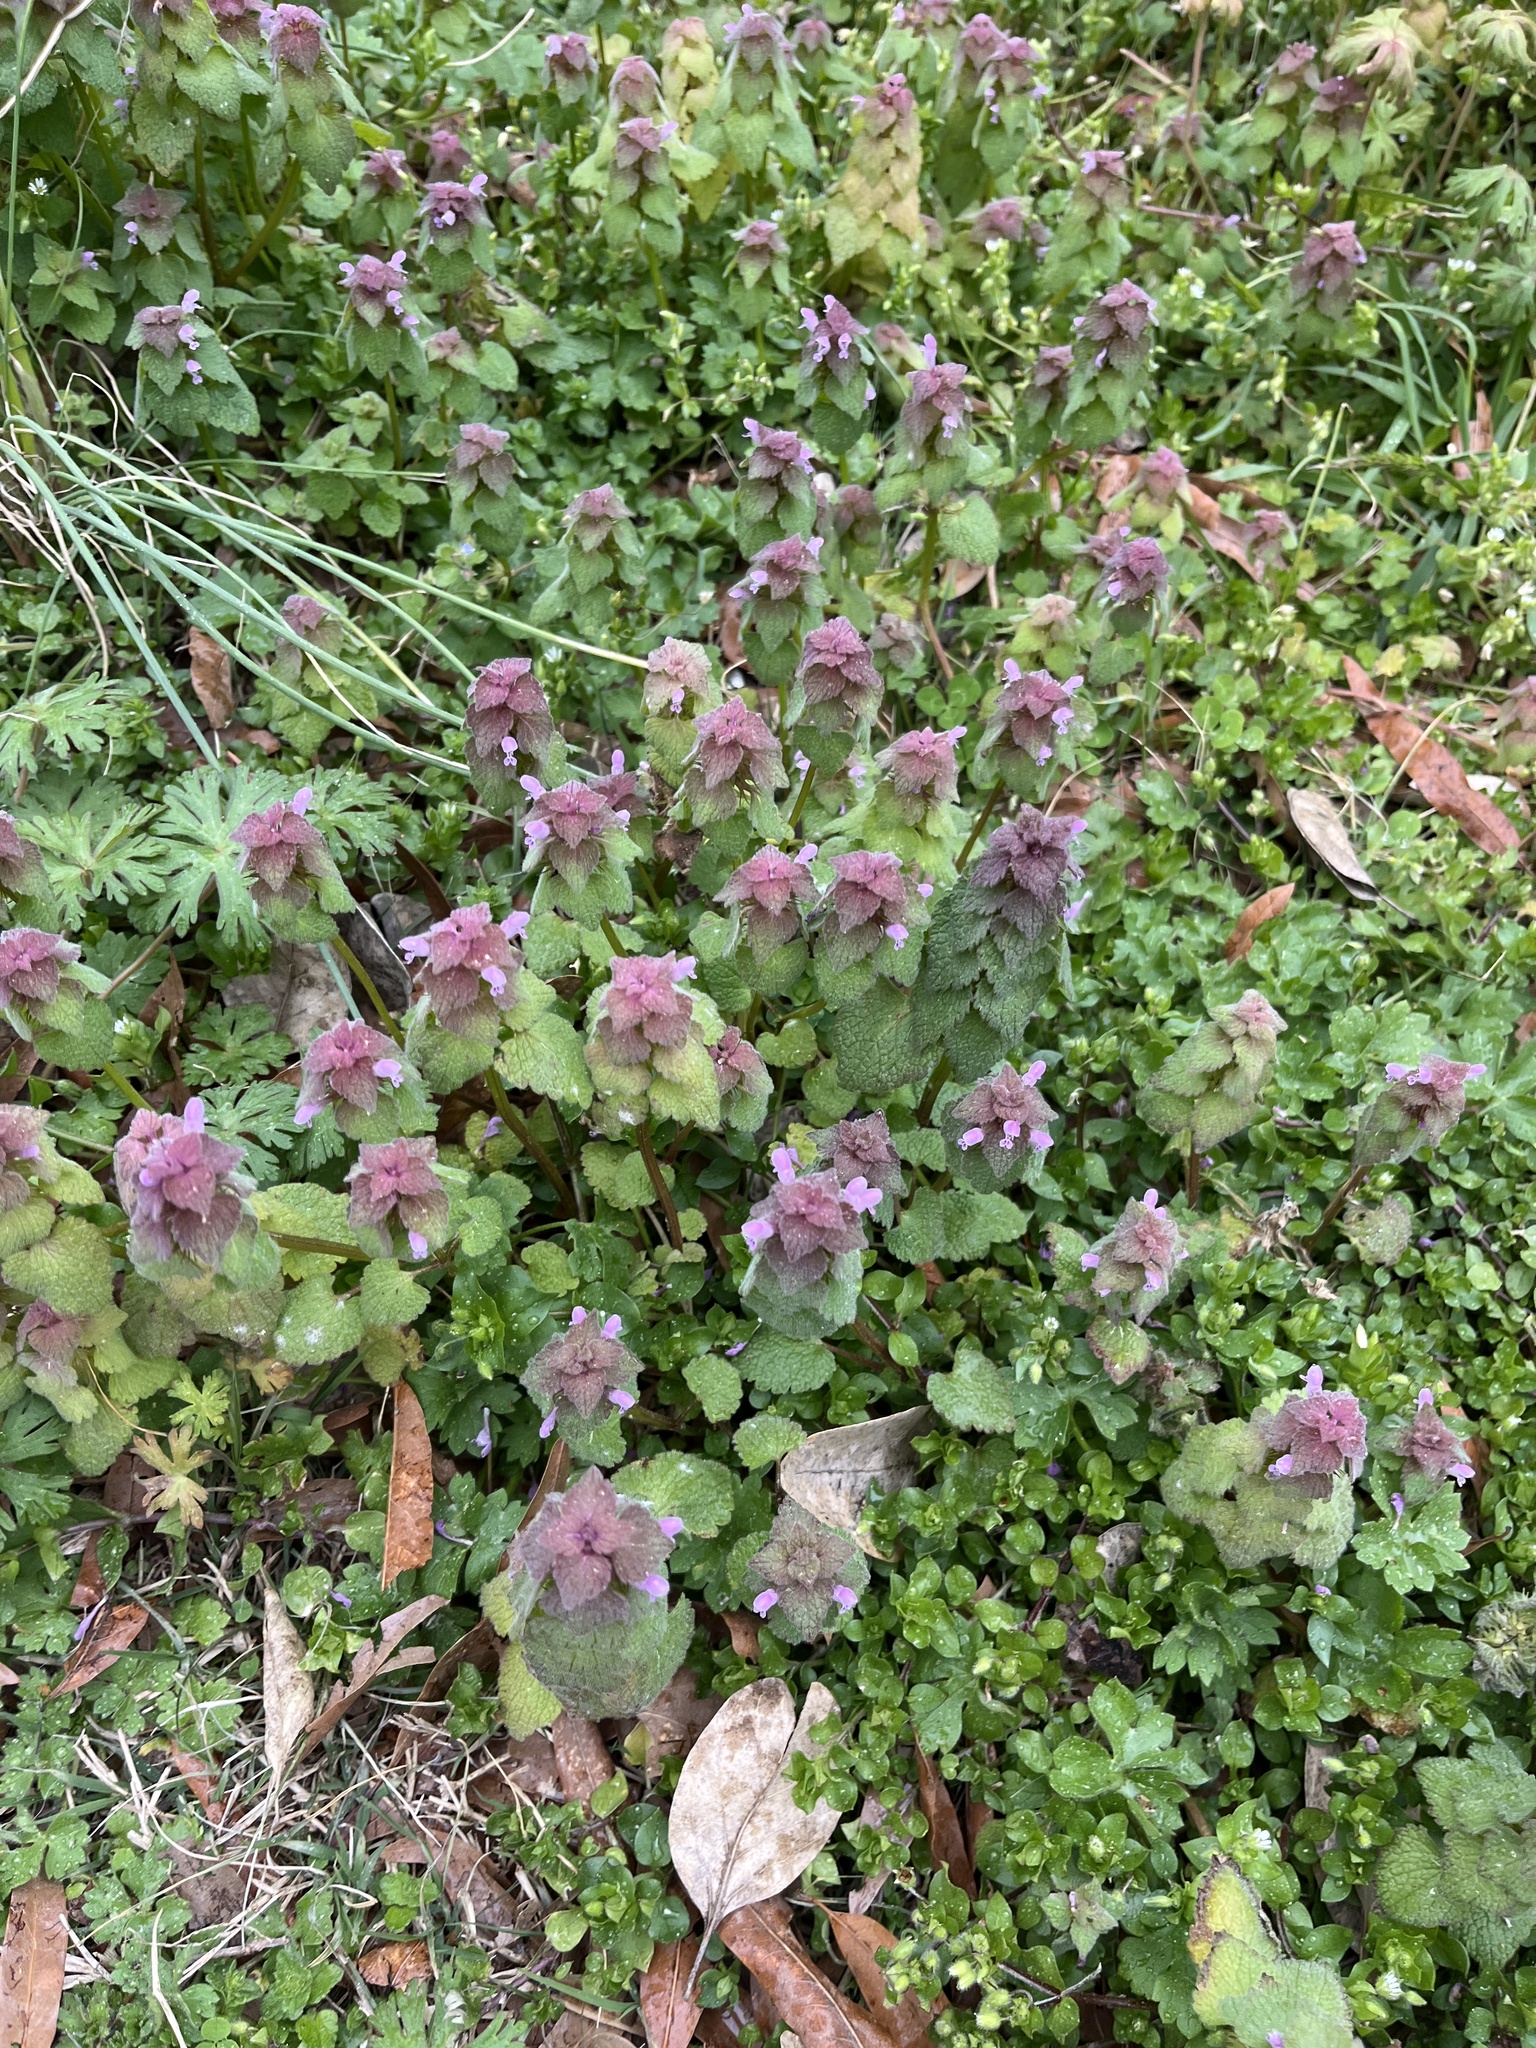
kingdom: Plantae
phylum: Tracheophyta
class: Magnoliopsida
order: Lamiales
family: Lamiaceae
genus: Lamium
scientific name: Lamium purpureum
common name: Red dead-nettle
